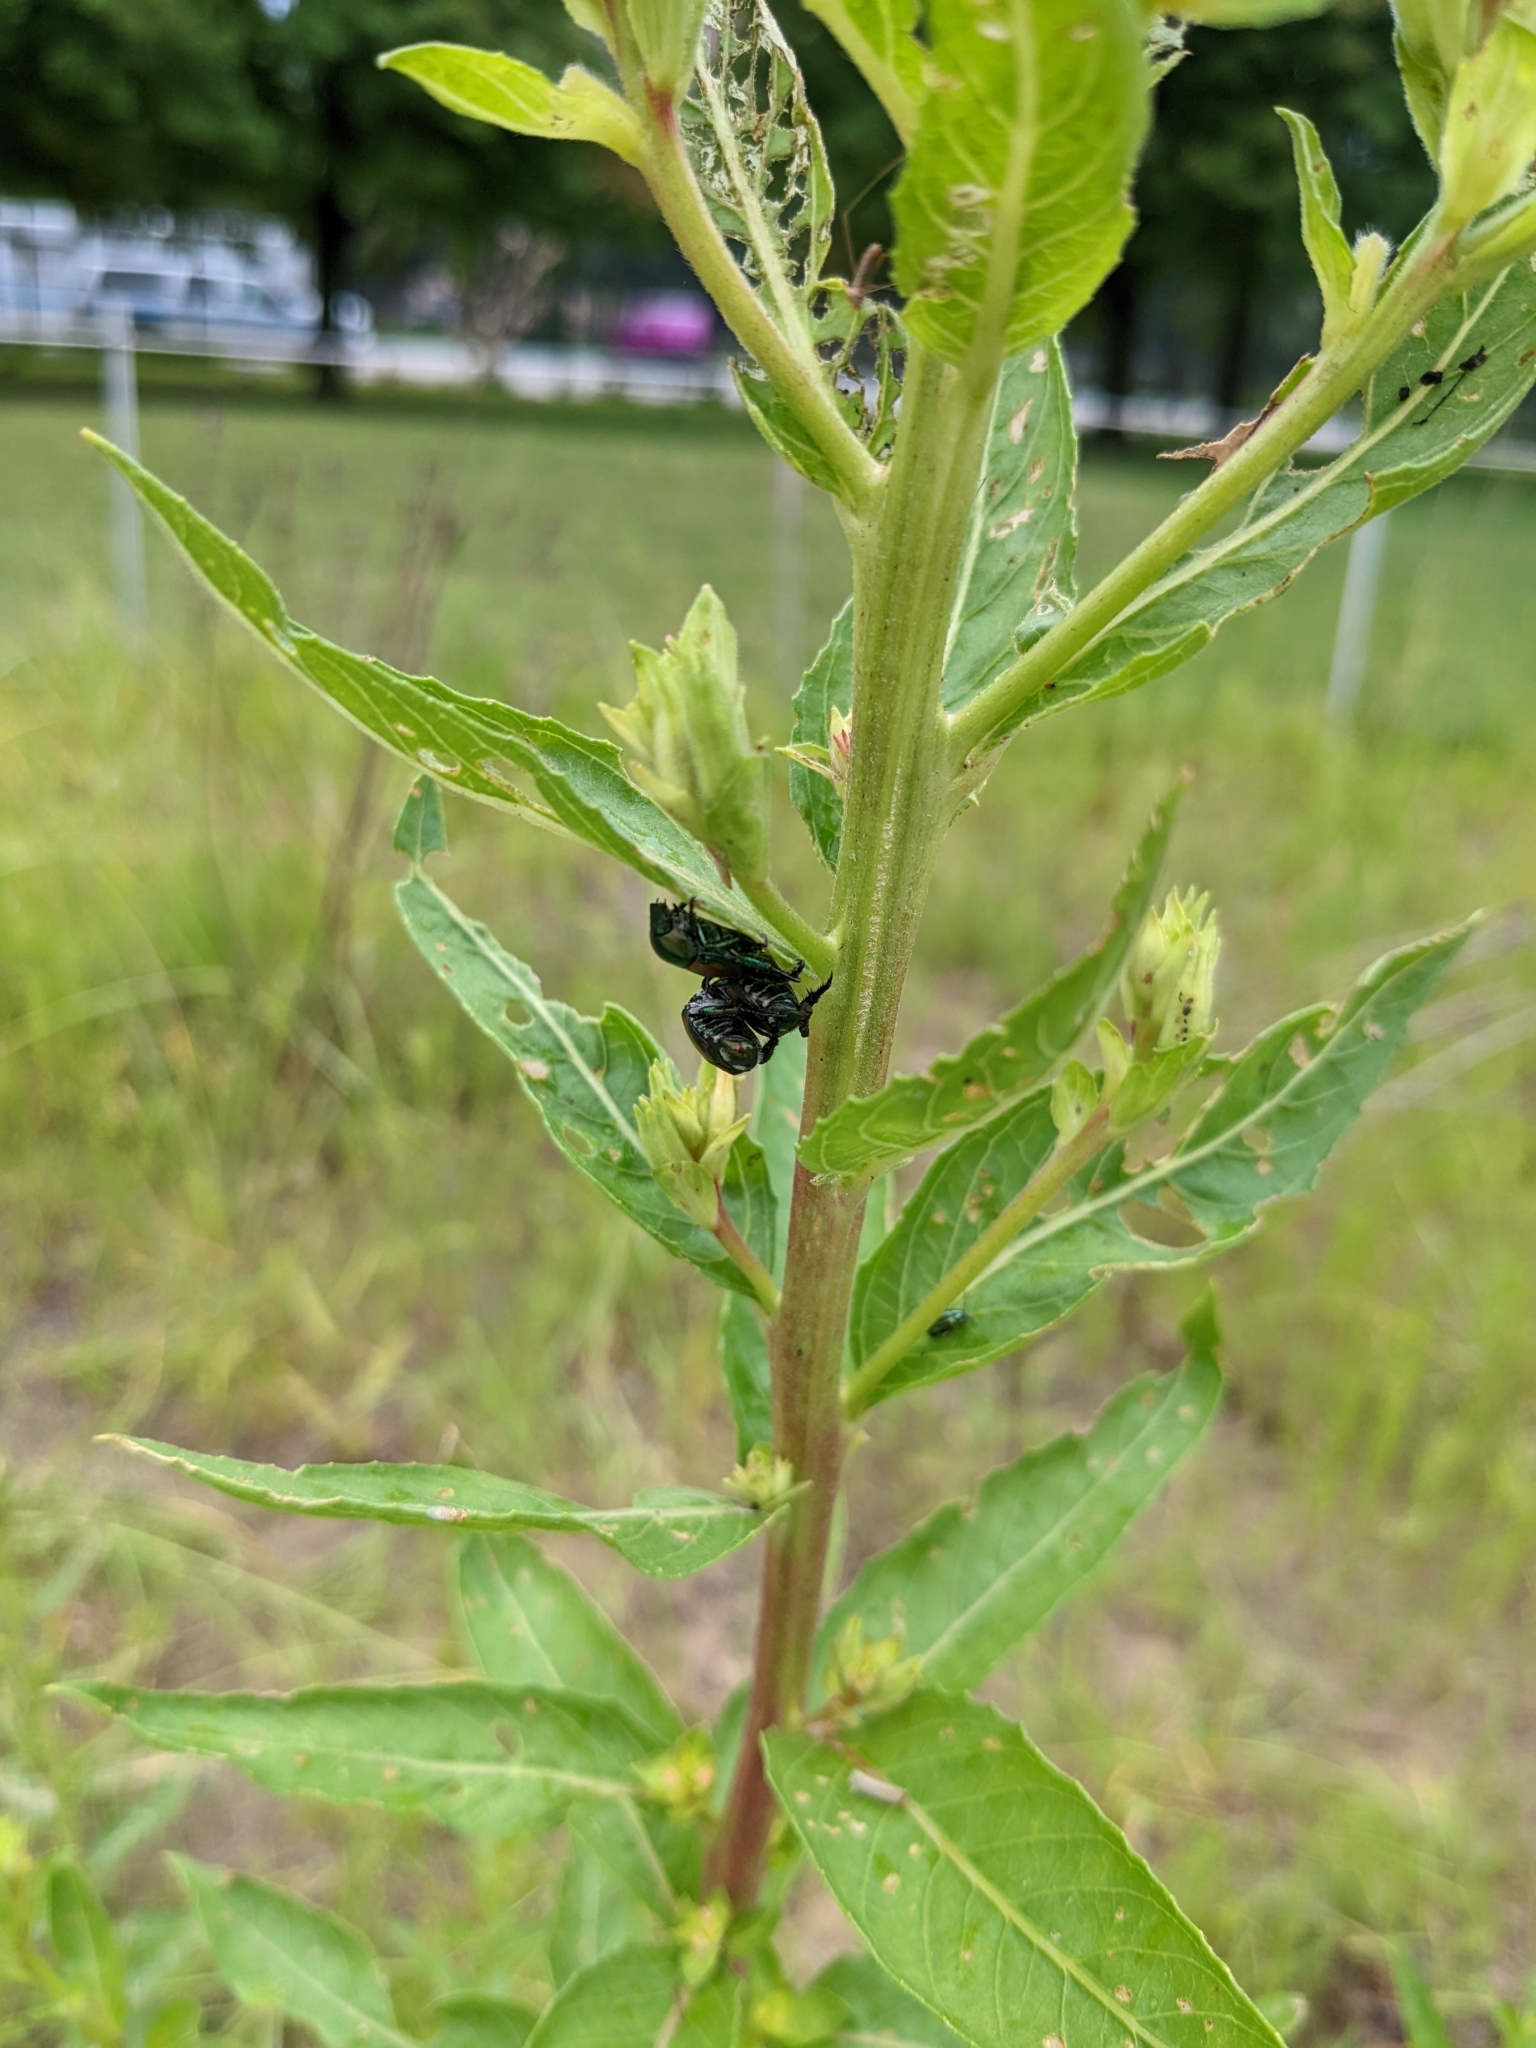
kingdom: Animalia
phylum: Arthropoda
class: Insecta
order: Coleoptera
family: Scarabaeidae
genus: Popillia
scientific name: Popillia japonica
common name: Japanese beetle
